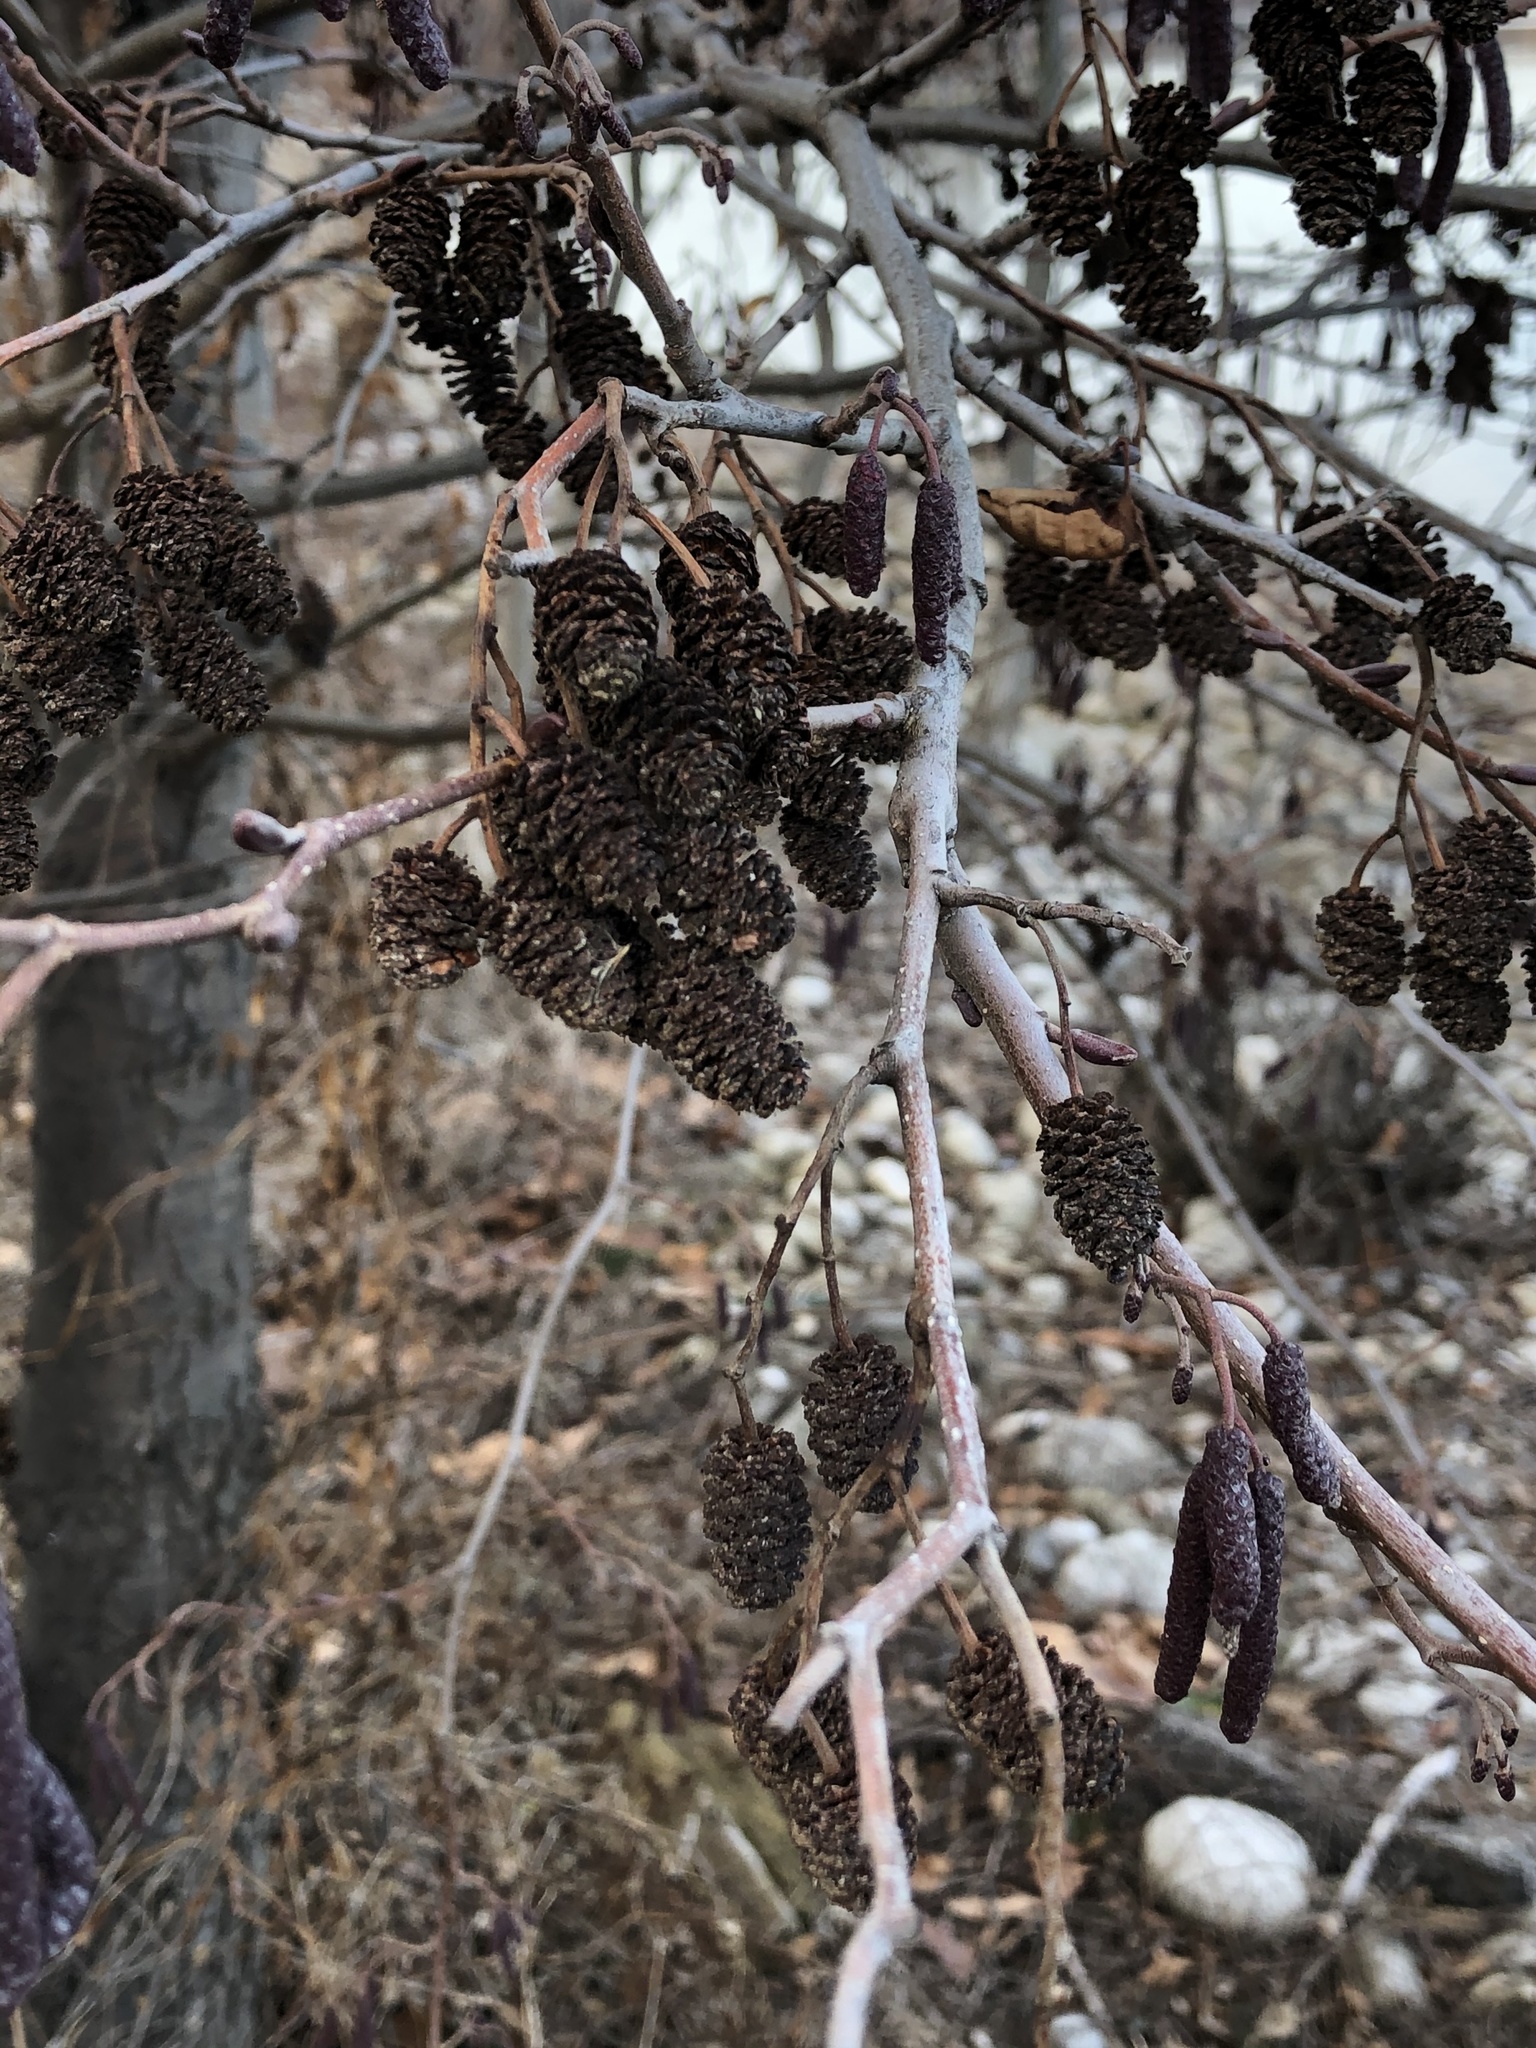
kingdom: Plantae
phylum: Tracheophyta
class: Magnoliopsida
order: Fagales
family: Betulaceae
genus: Alnus
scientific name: Alnus glutinosa
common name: Black alder
